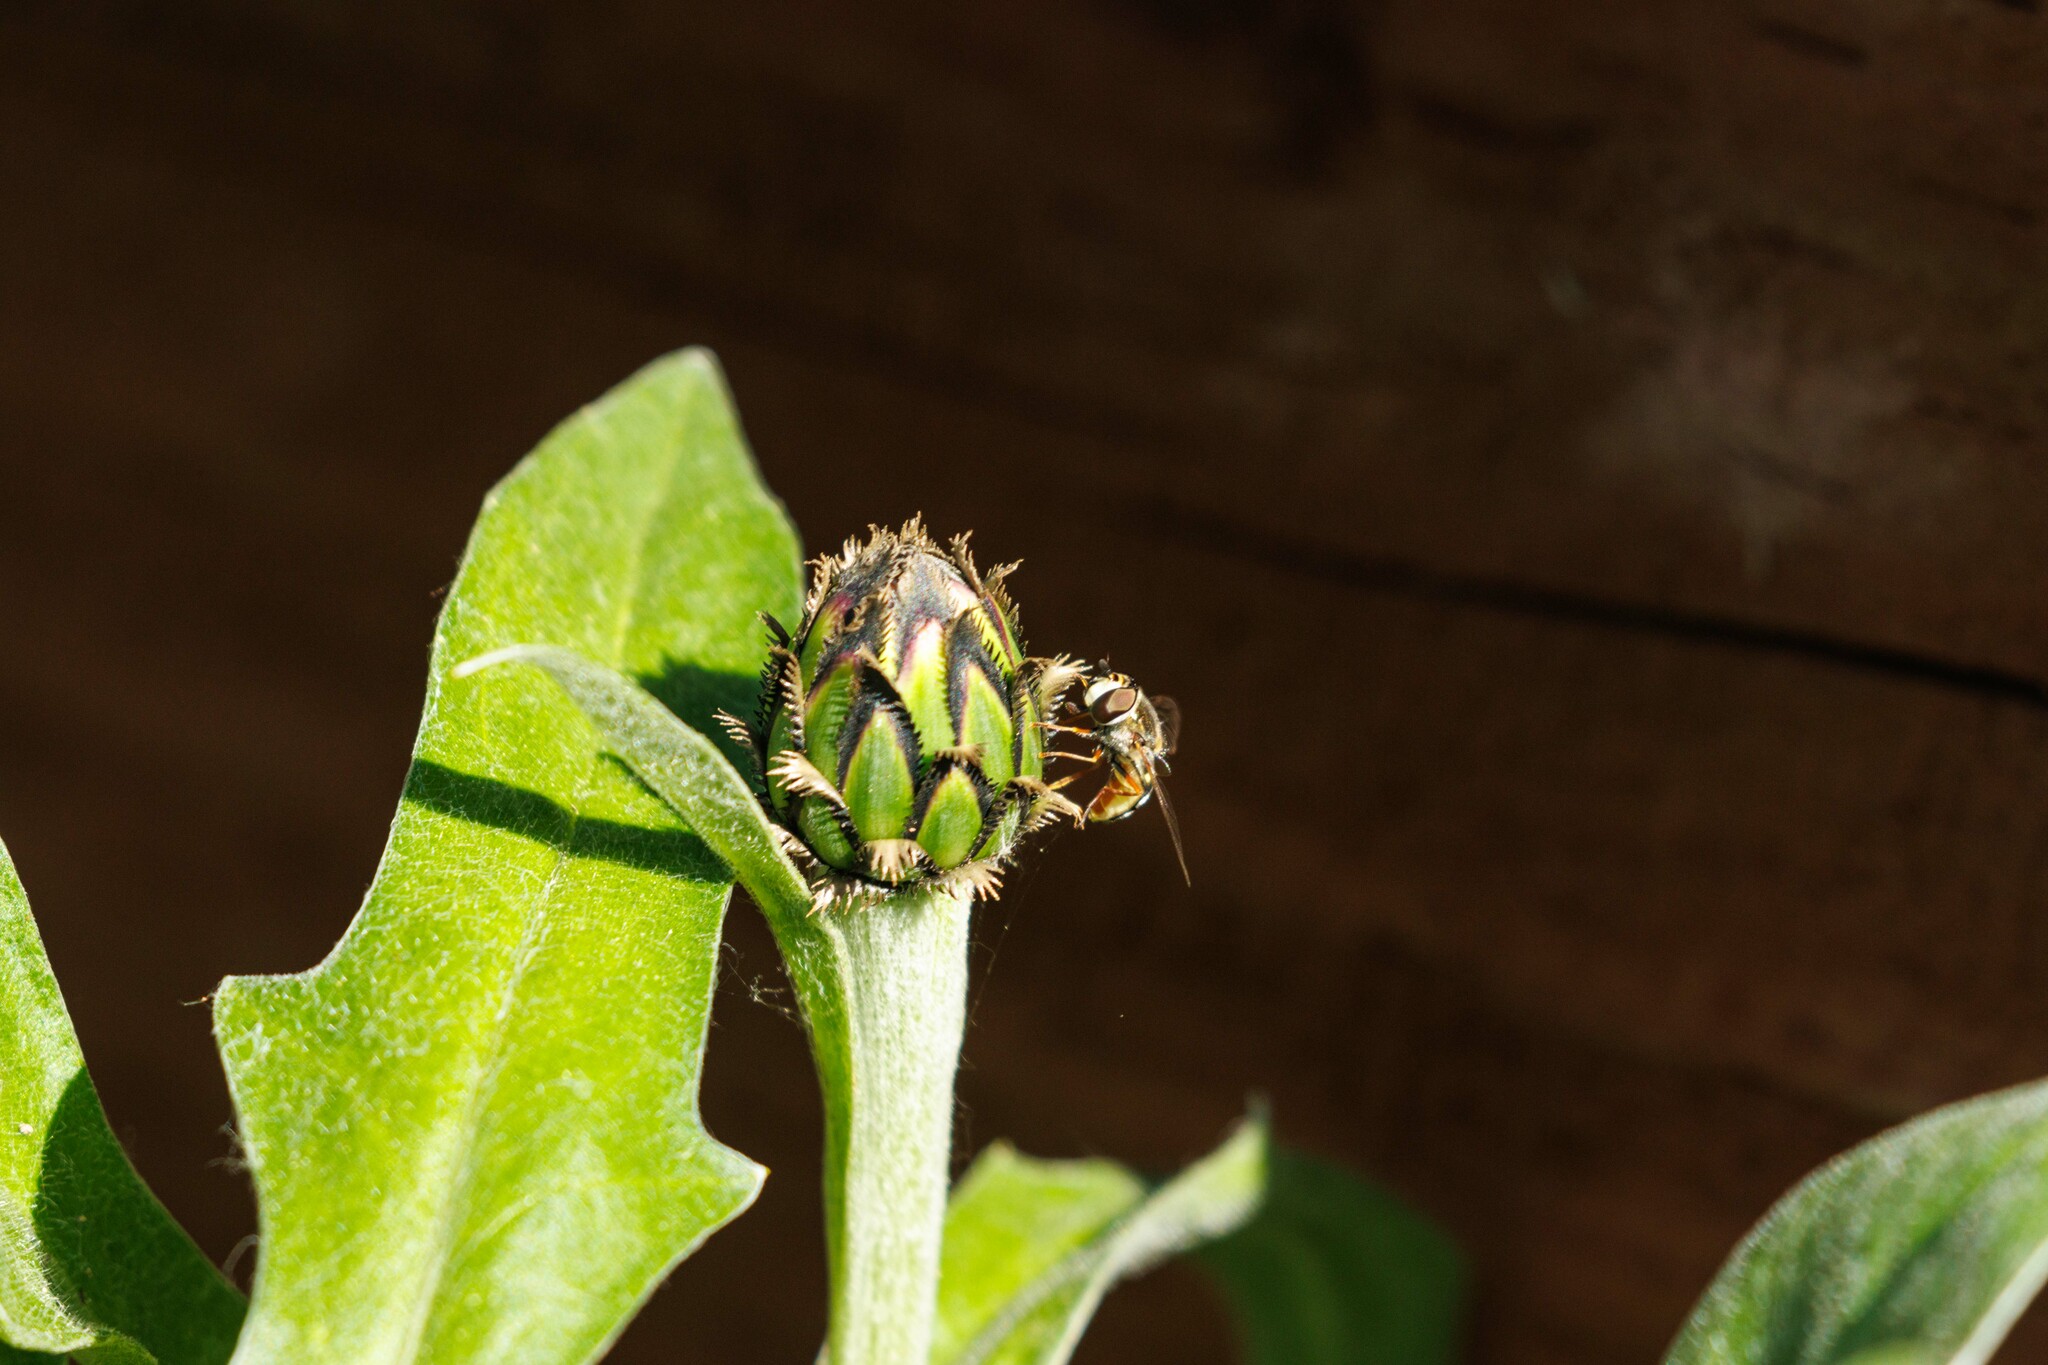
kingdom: Animalia
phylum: Arthropoda
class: Insecta
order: Diptera
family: Syrphidae
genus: Eupeodes
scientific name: Eupeodes volucris
